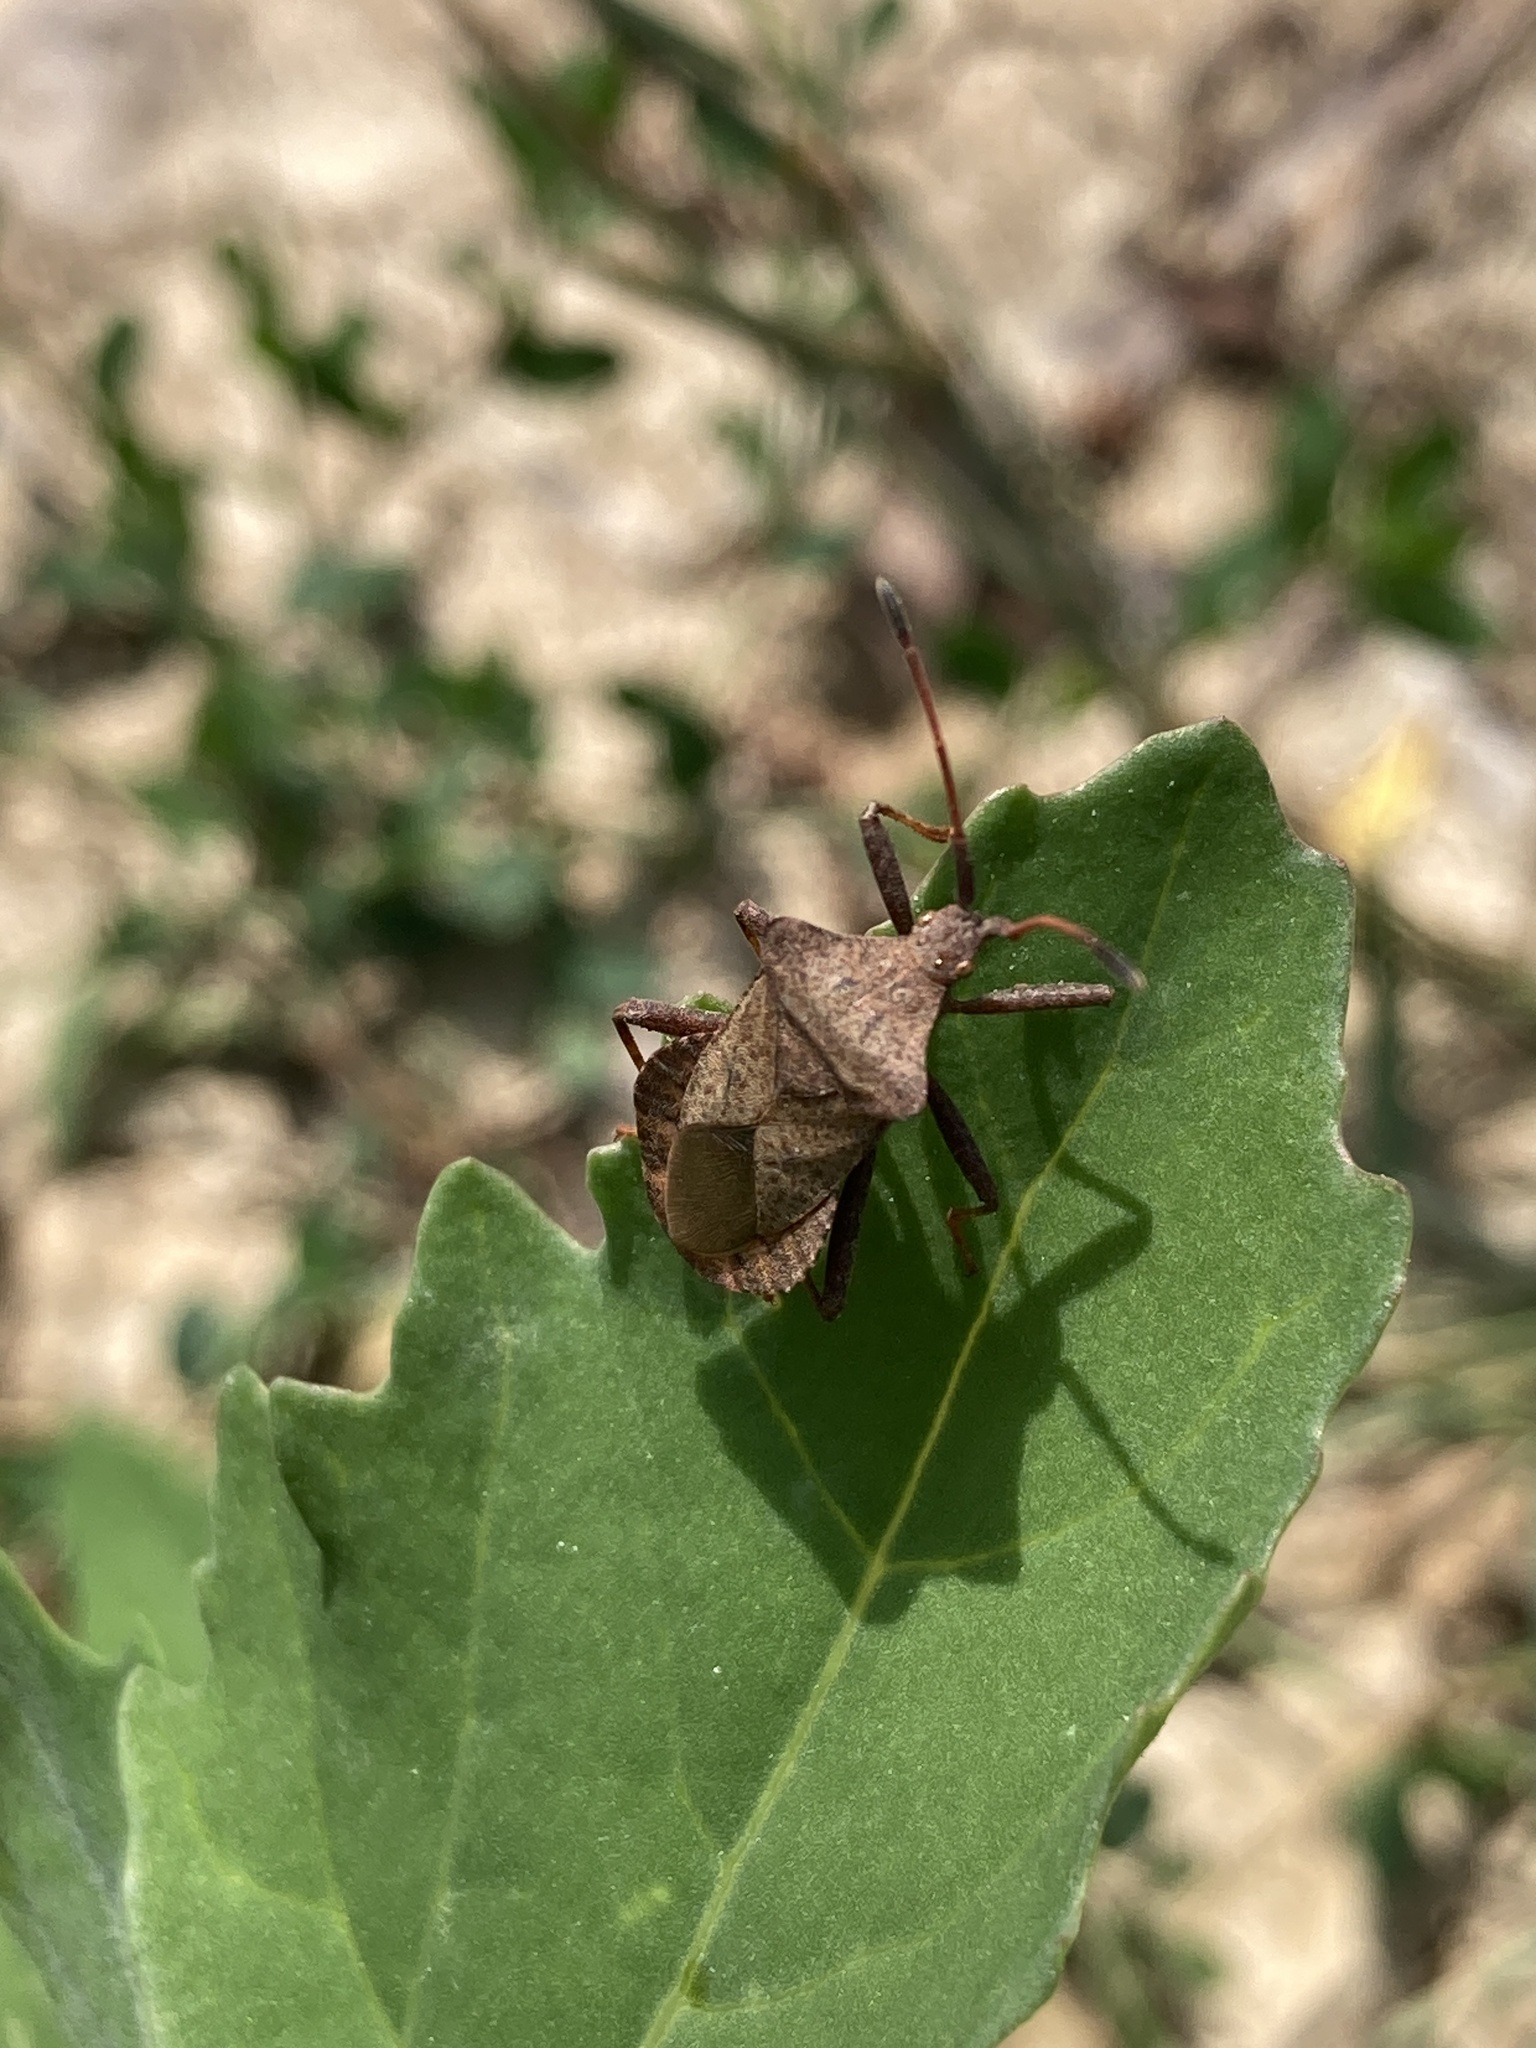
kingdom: Animalia
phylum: Arthropoda
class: Insecta
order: Hemiptera
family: Coreidae
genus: Coreus
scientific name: Coreus marginatus
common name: Dock bug
